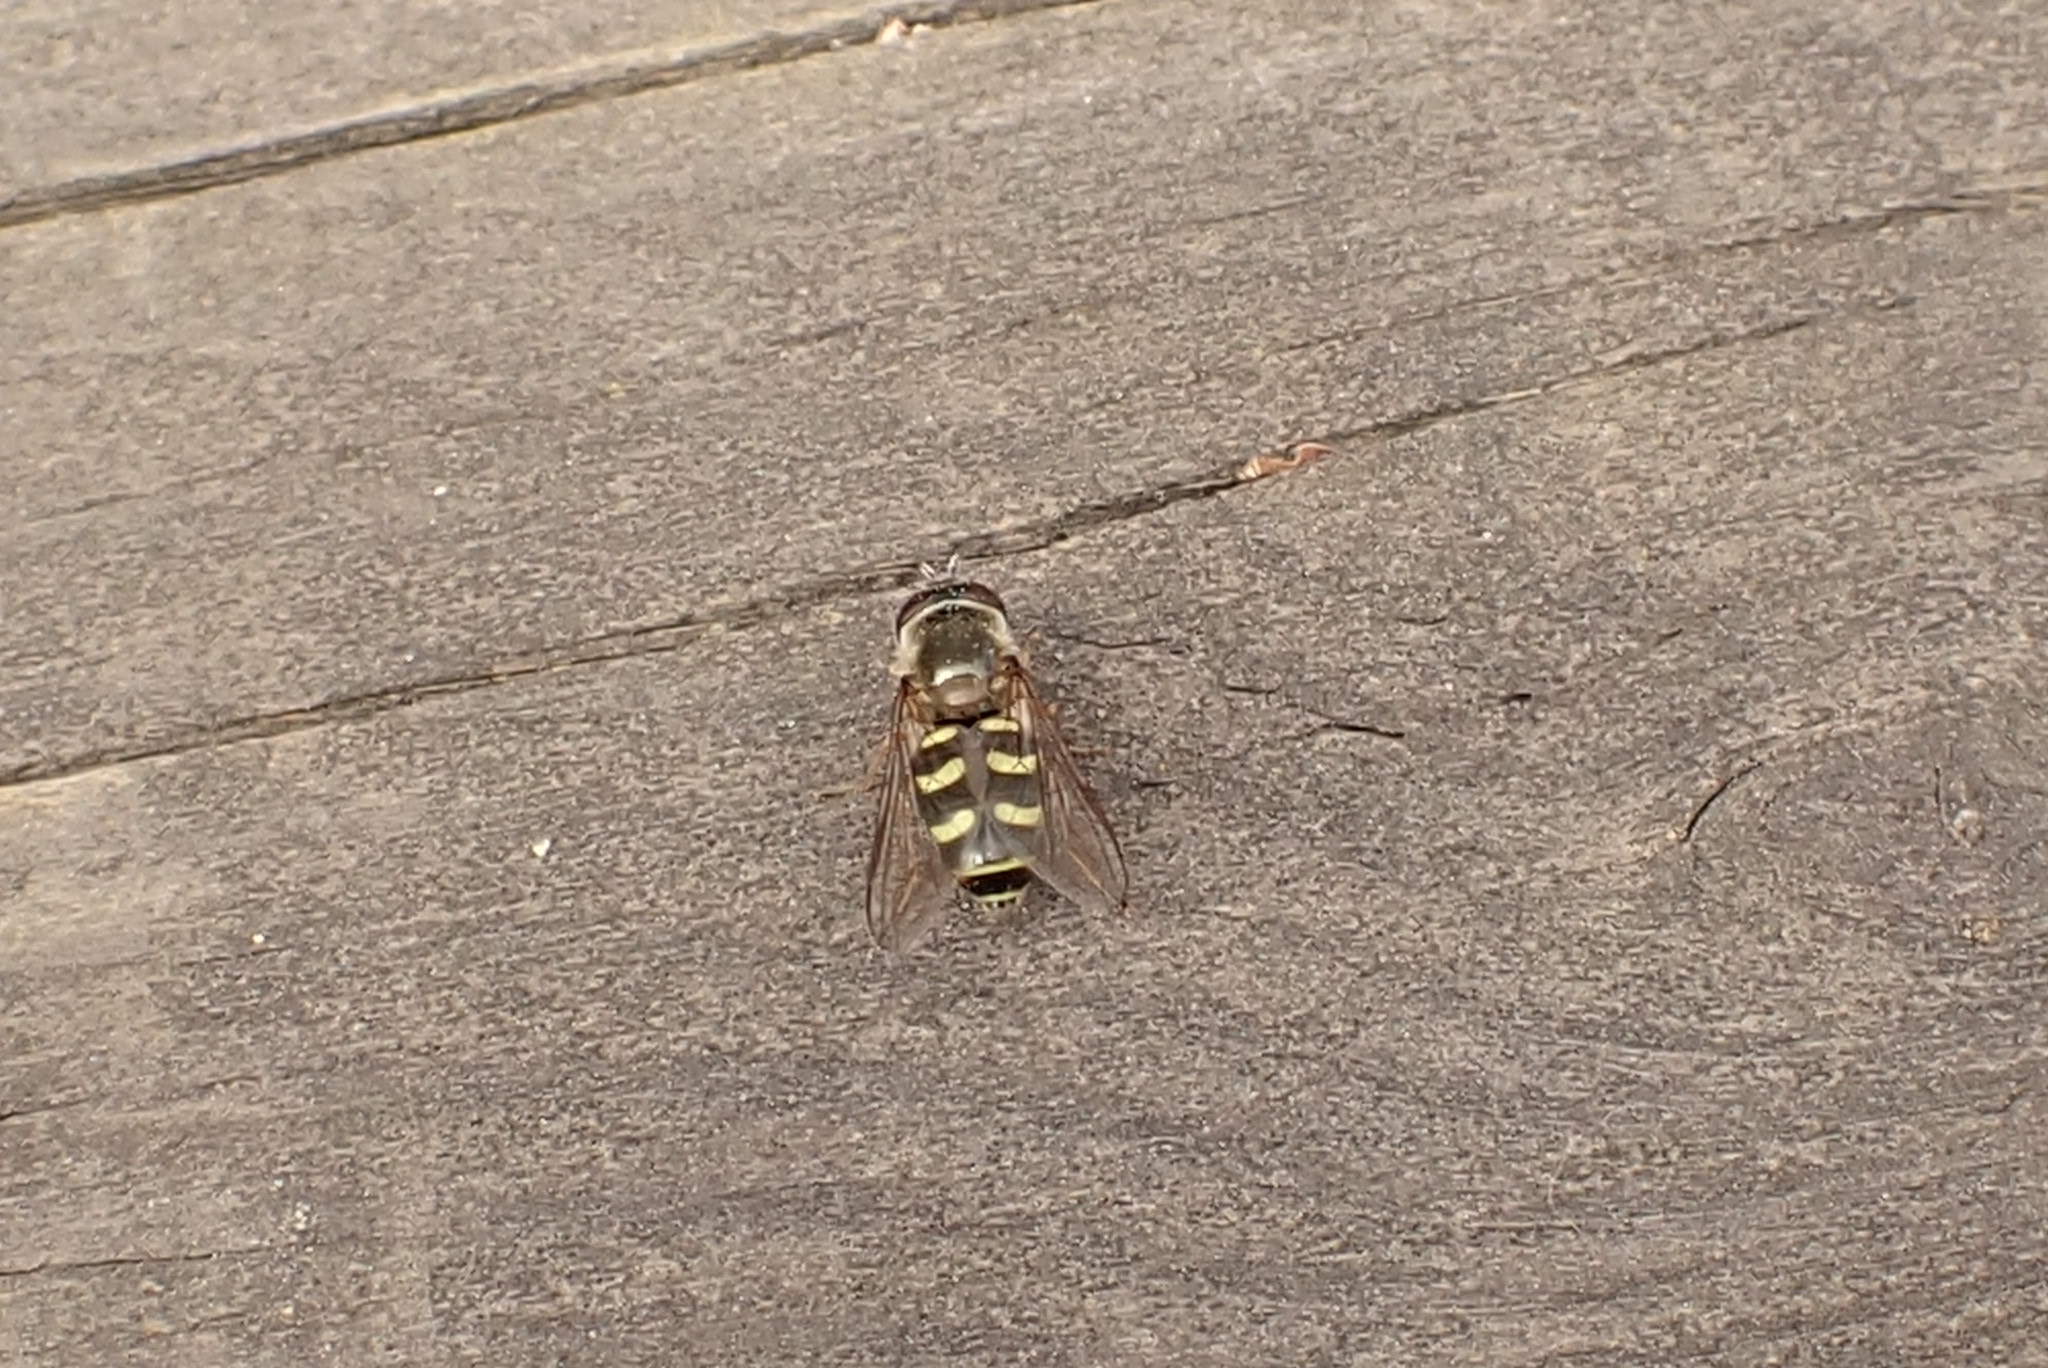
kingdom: Animalia
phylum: Arthropoda
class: Insecta
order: Diptera
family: Syrphidae
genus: Eupeodes
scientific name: Eupeodes corollae
